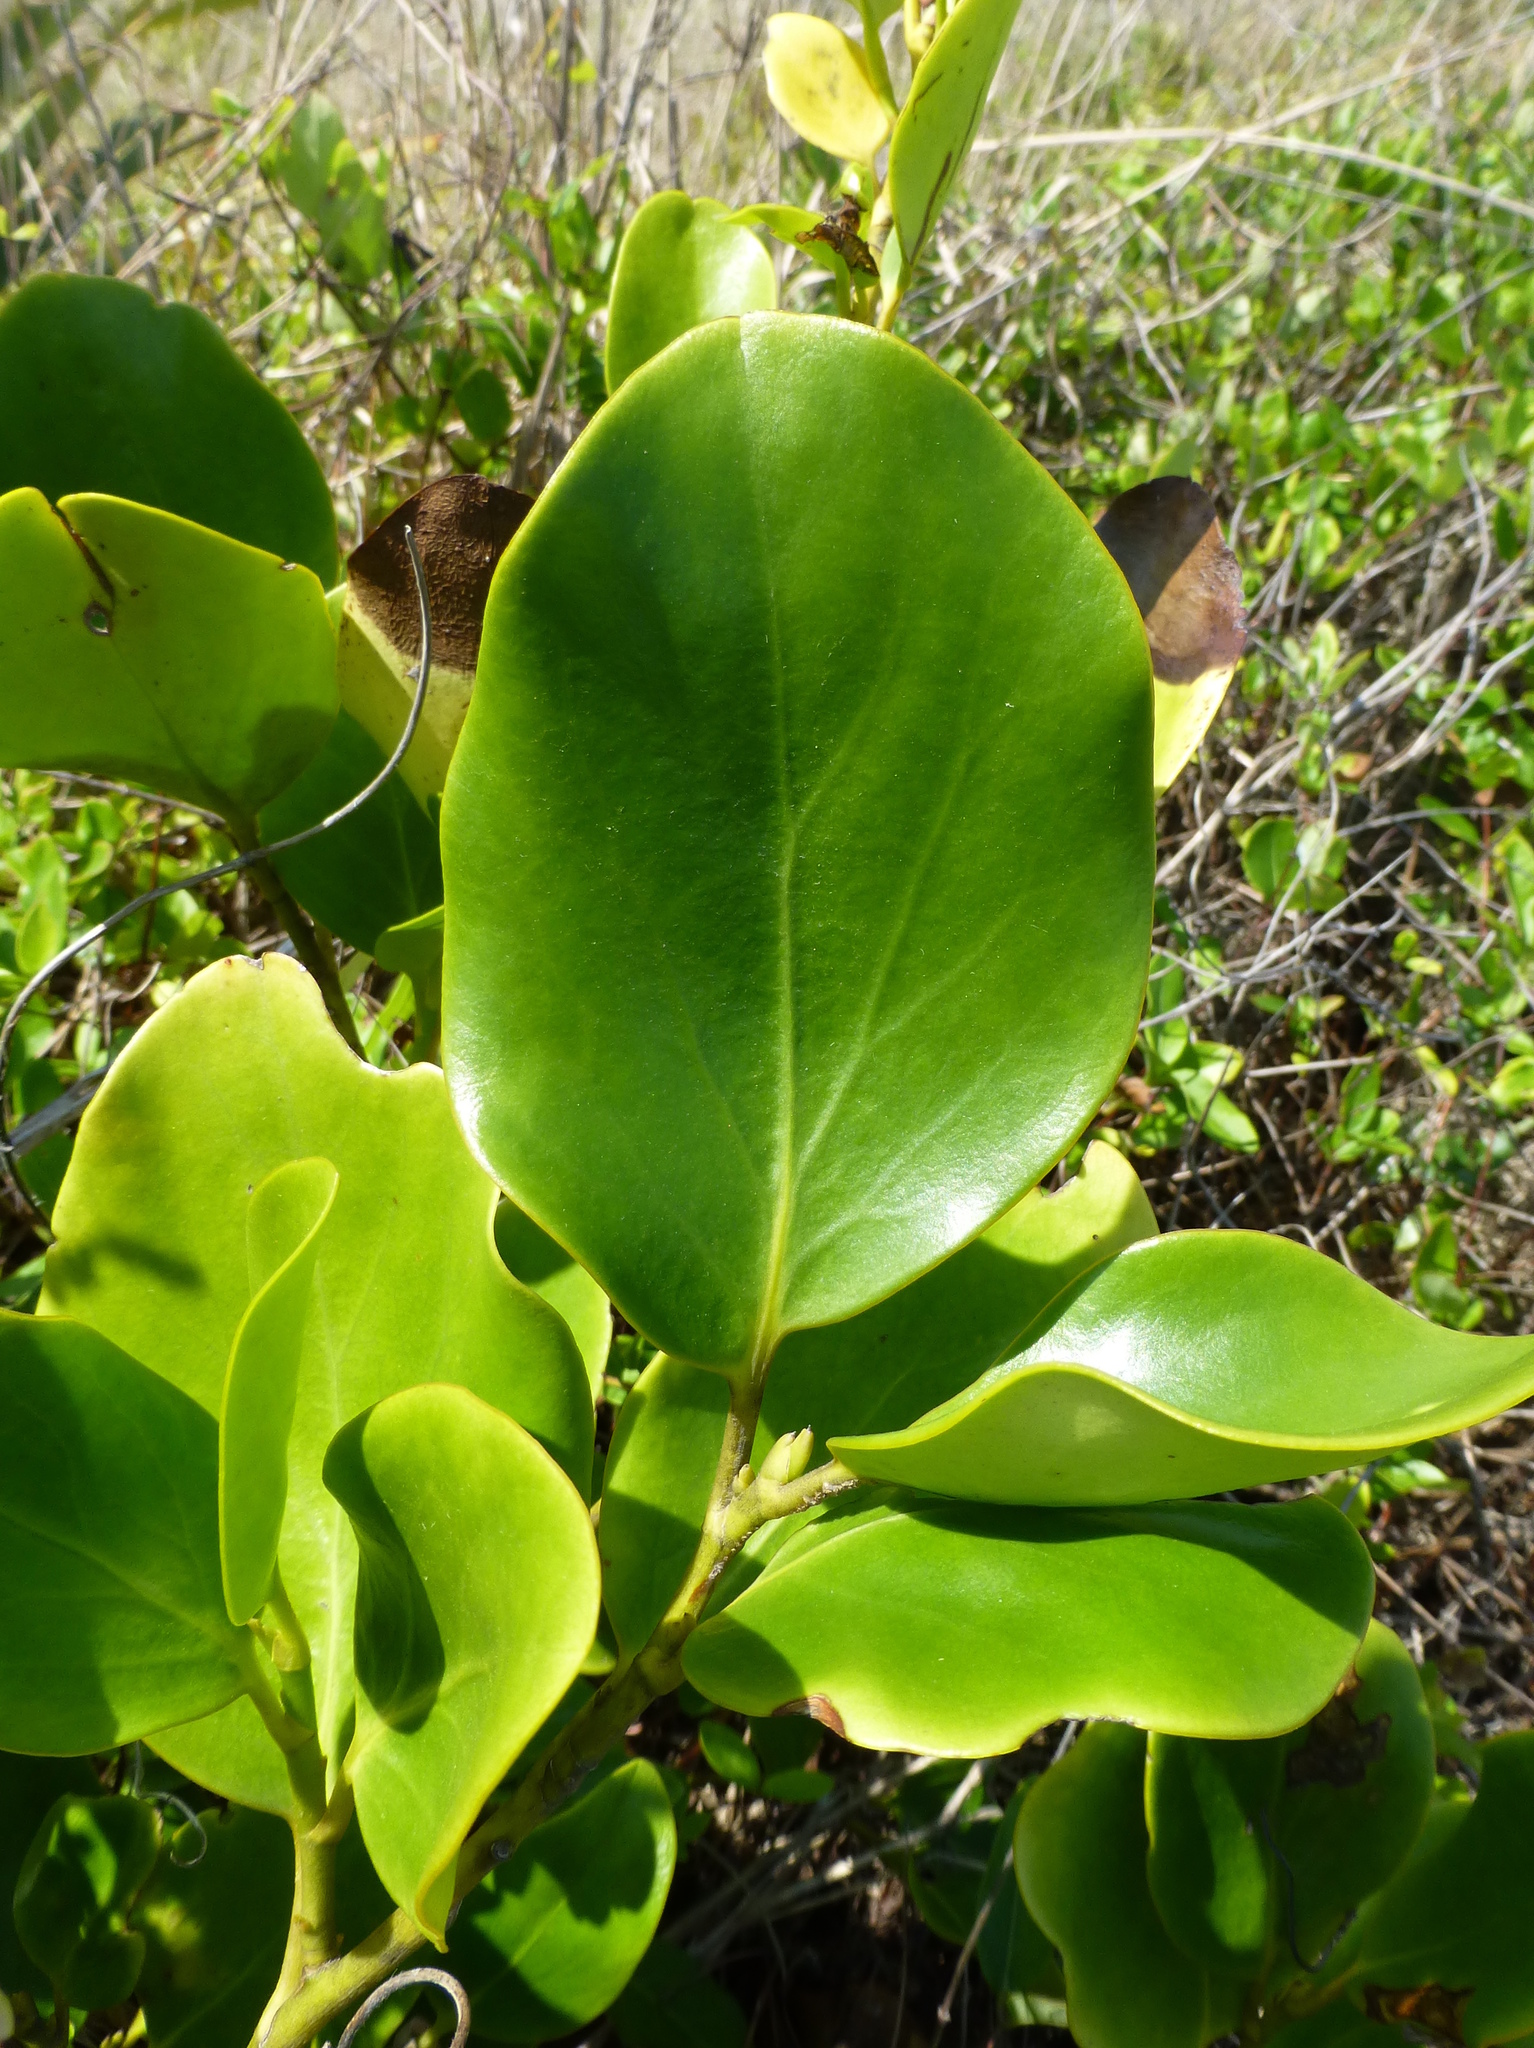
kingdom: Plantae
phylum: Tracheophyta
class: Magnoliopsida
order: Apiales
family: Griseliniaceae
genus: Griselinia
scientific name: Griselinia littoralis
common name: New zealand broadleaf
